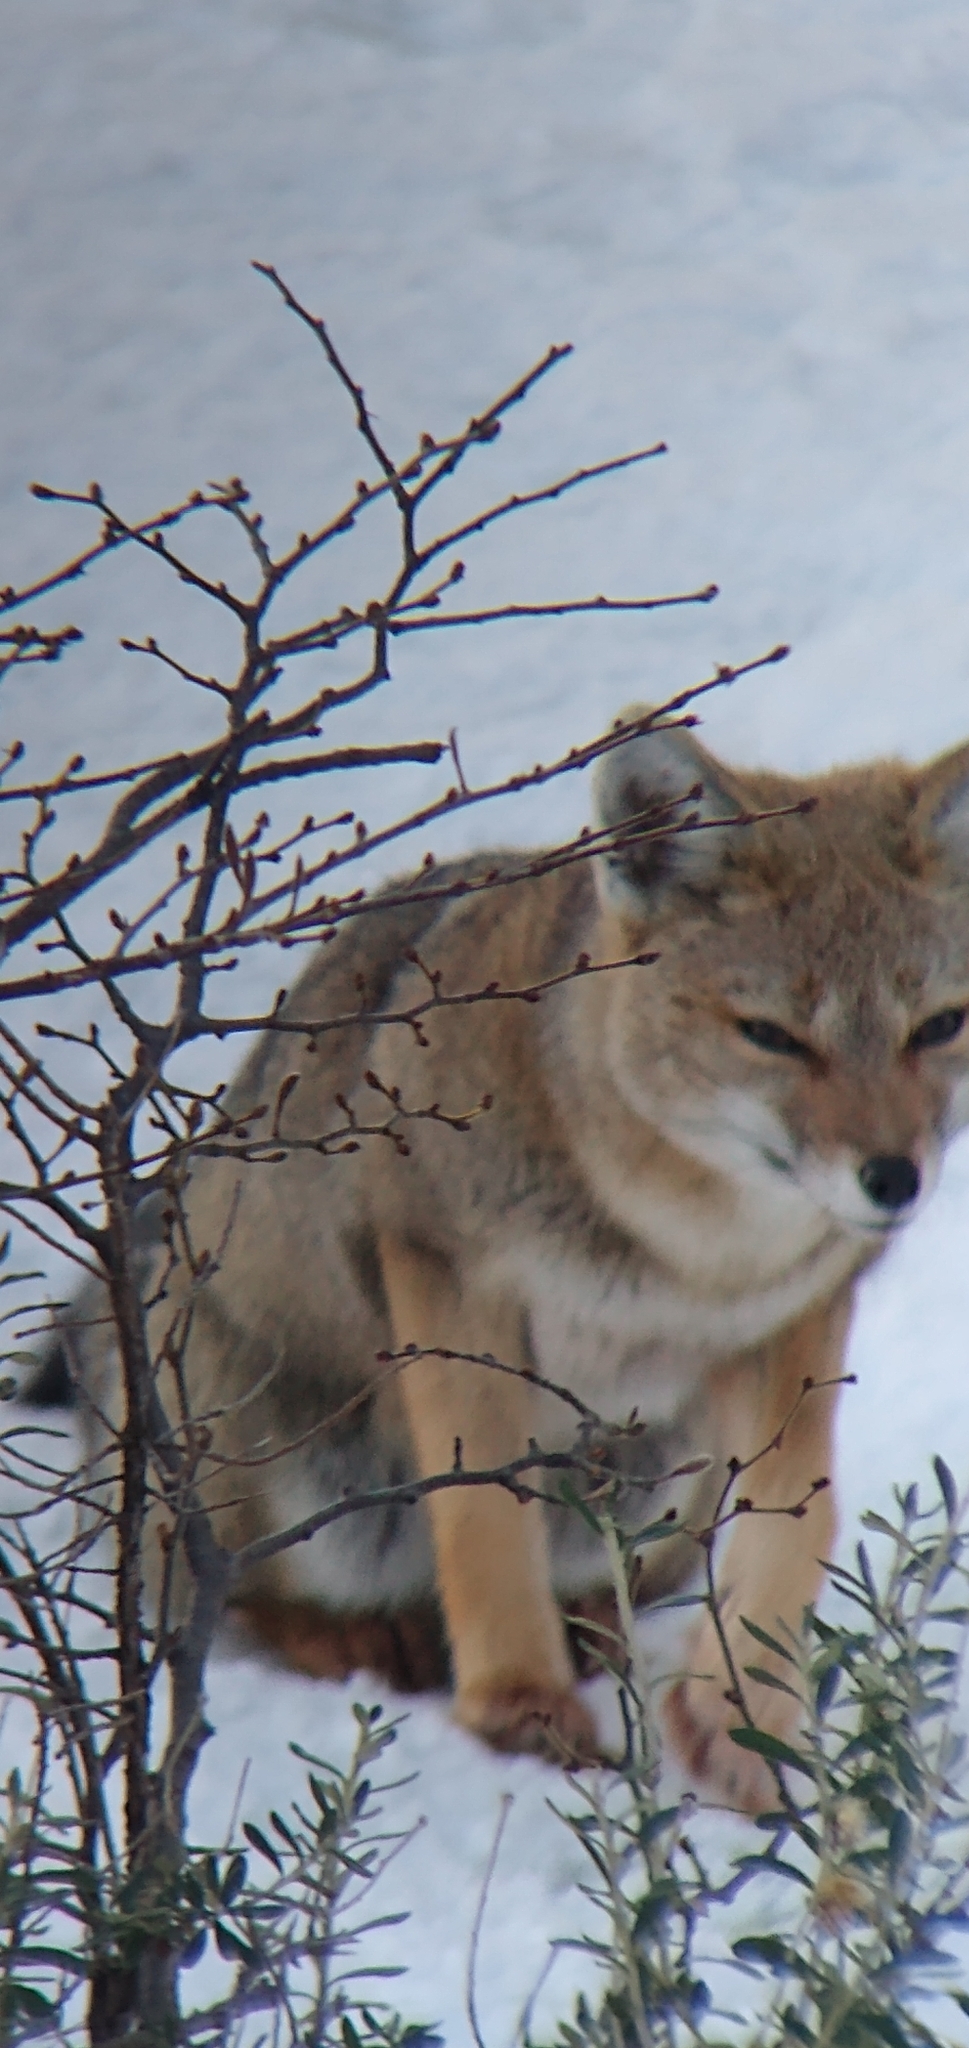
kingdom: Animalia
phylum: Chordata
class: Mammalia
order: Carnivora
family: Canidae
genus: Lycalopex
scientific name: Lycalopex gymnocercus
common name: Pampas fox
